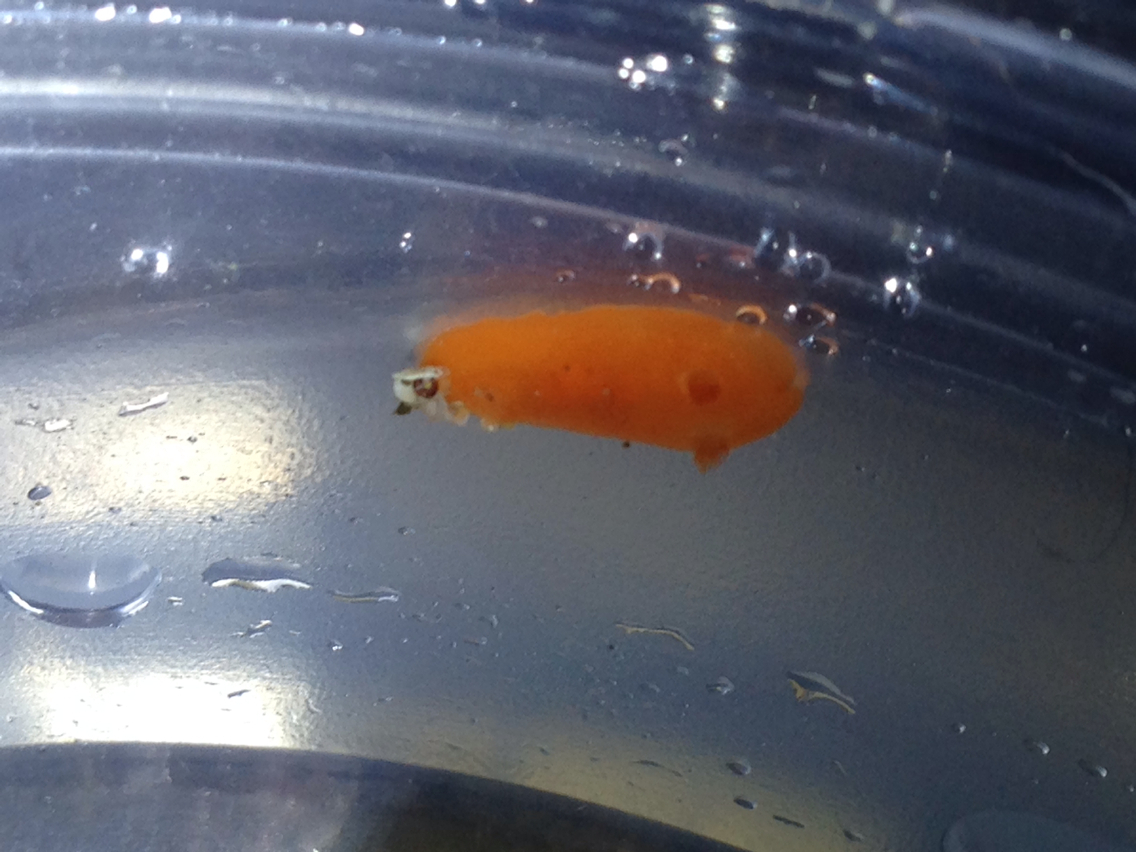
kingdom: Animalia
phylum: Mollusca
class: Gastropoda
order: Nudibranchia
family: Discodorididae
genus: Rostanga
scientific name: Rostanga pulchra
